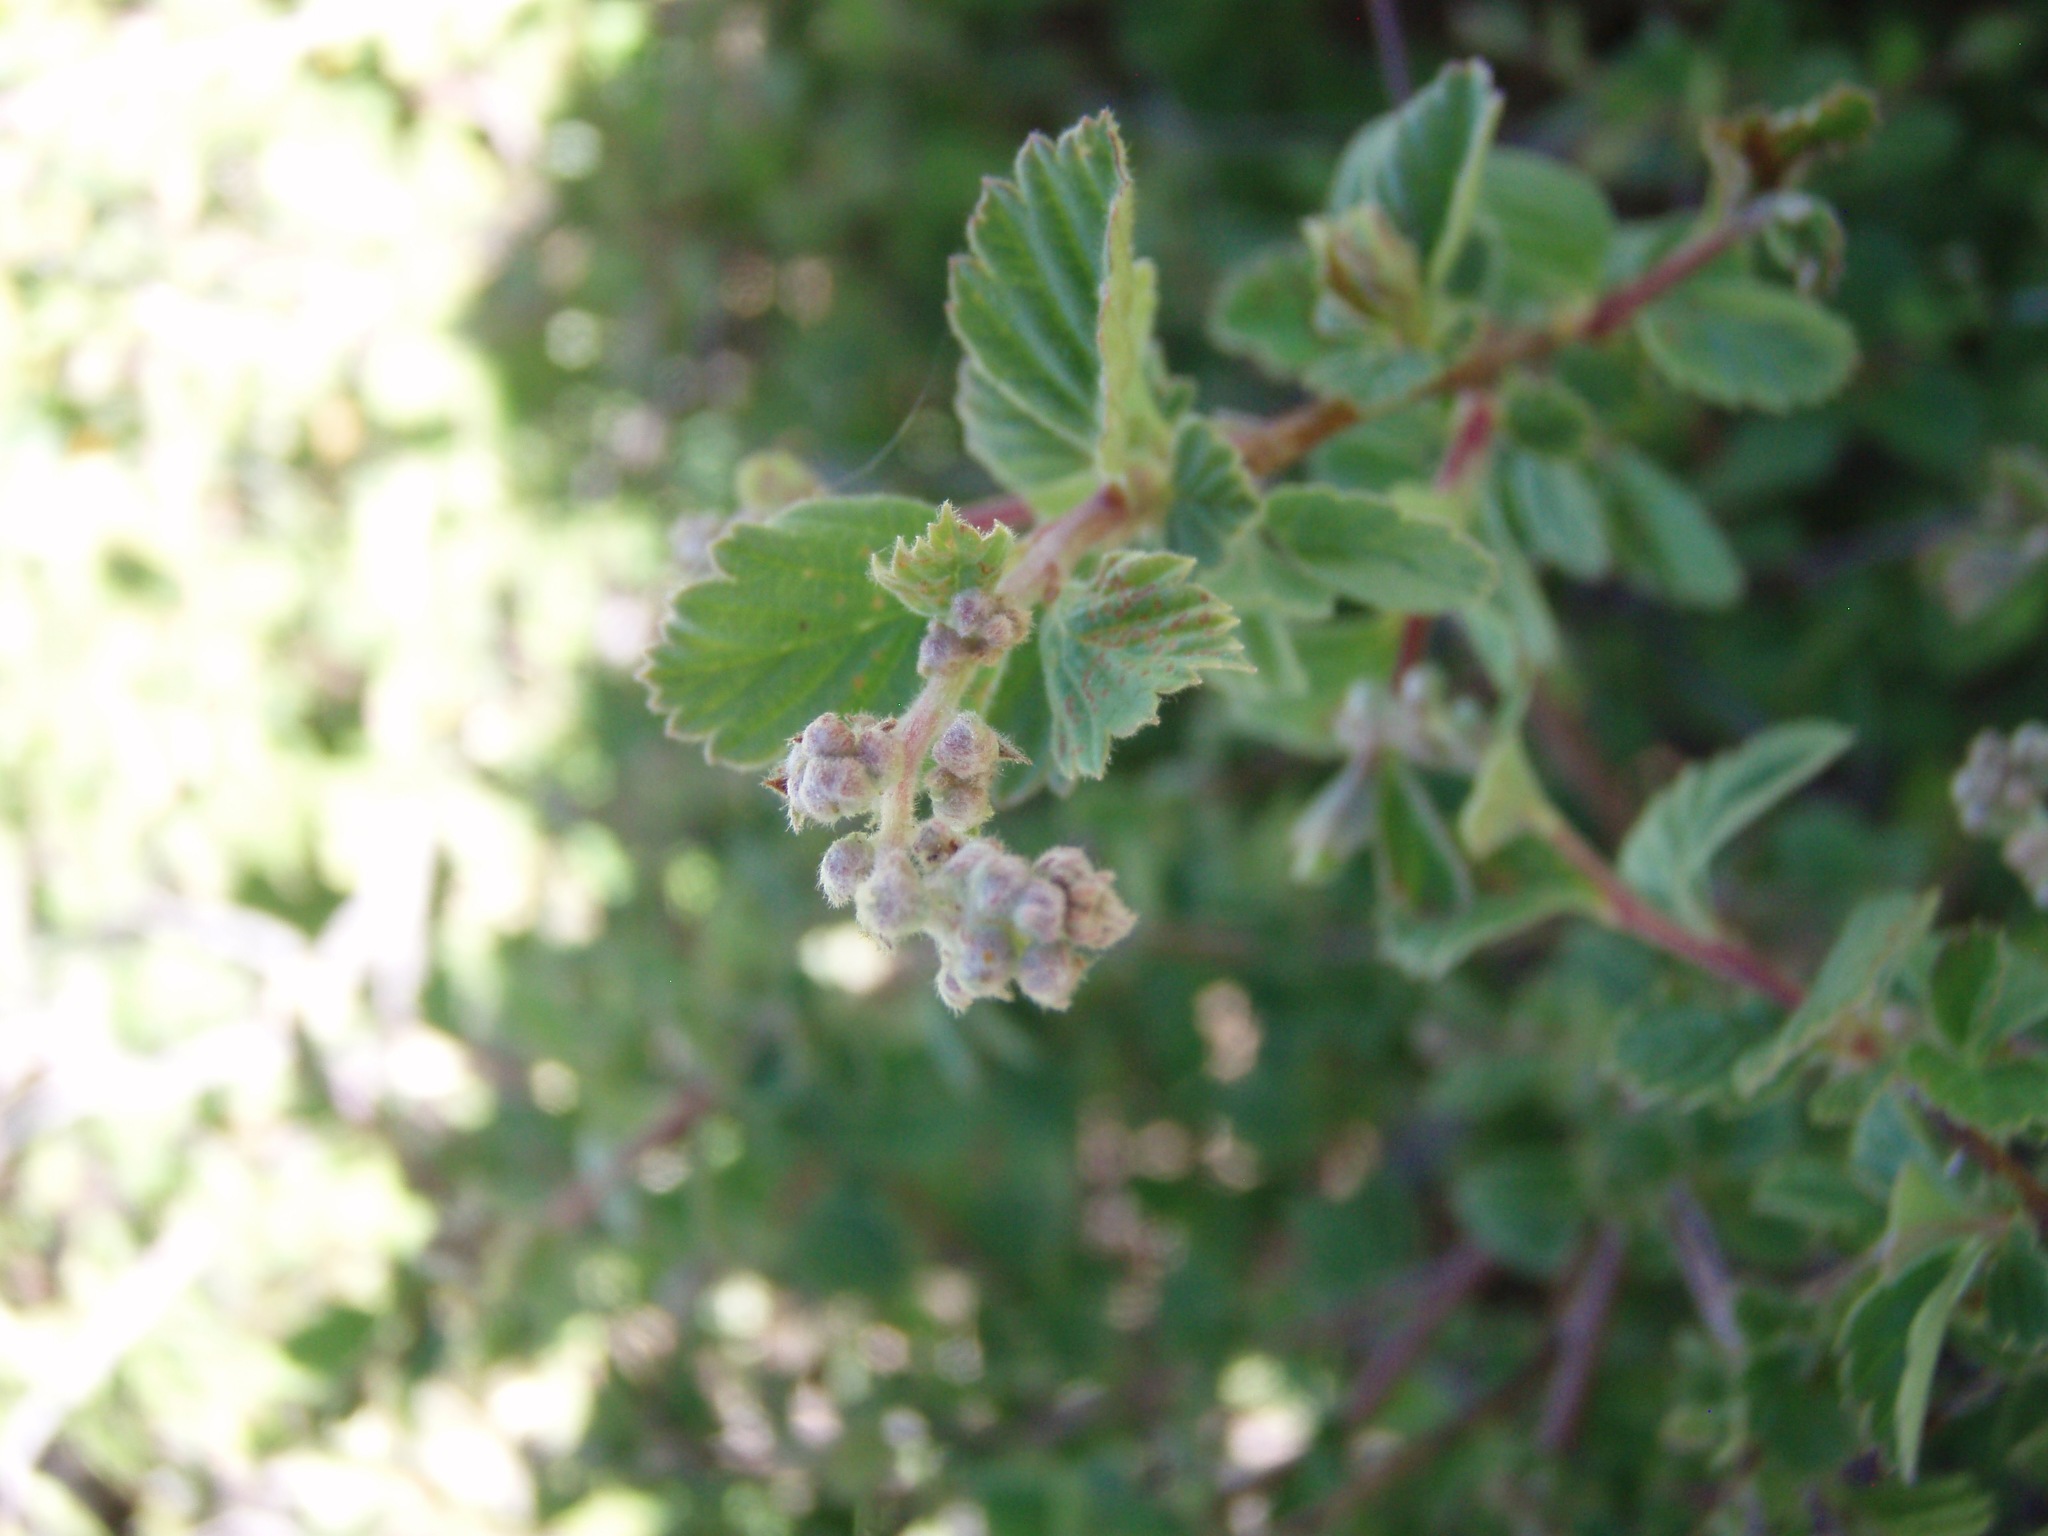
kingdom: Plantae
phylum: Tracheophyta
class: Magnoliopsida
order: Rosales
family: Rosaceae
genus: Holodiscus
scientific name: Holodiscus discolor
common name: Oceanspray
